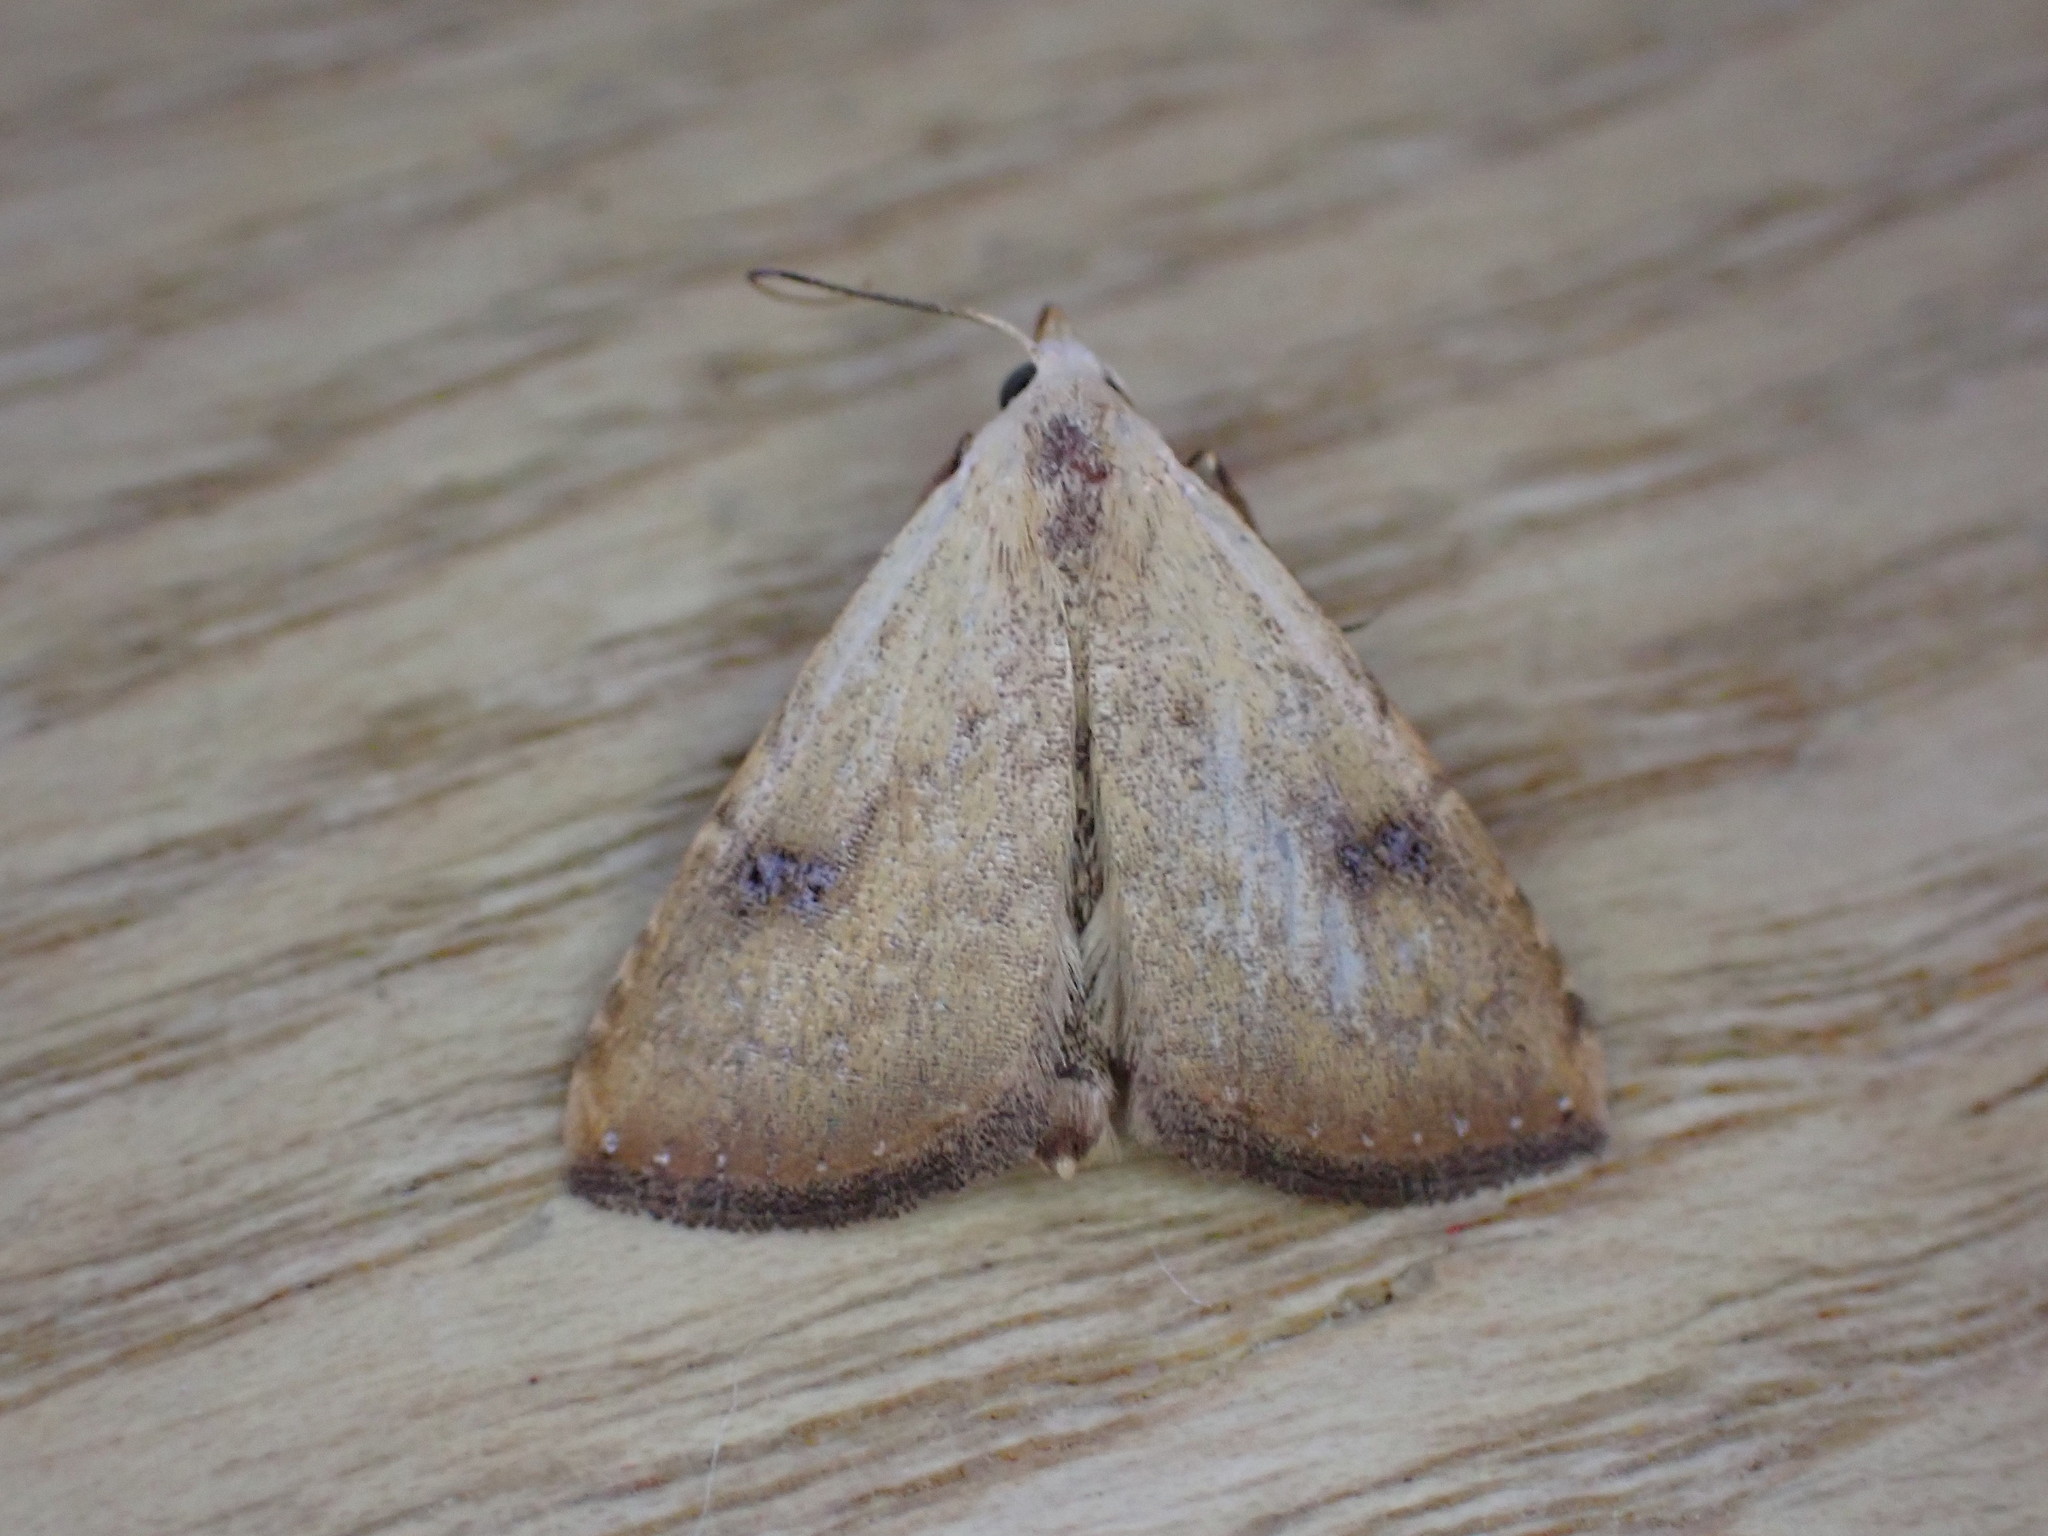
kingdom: Animalia
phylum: Arthropoda
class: Insecta
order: Lepidoptera
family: Erebidae
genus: Rivula
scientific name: Rivula sericealis
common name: Straw dot
